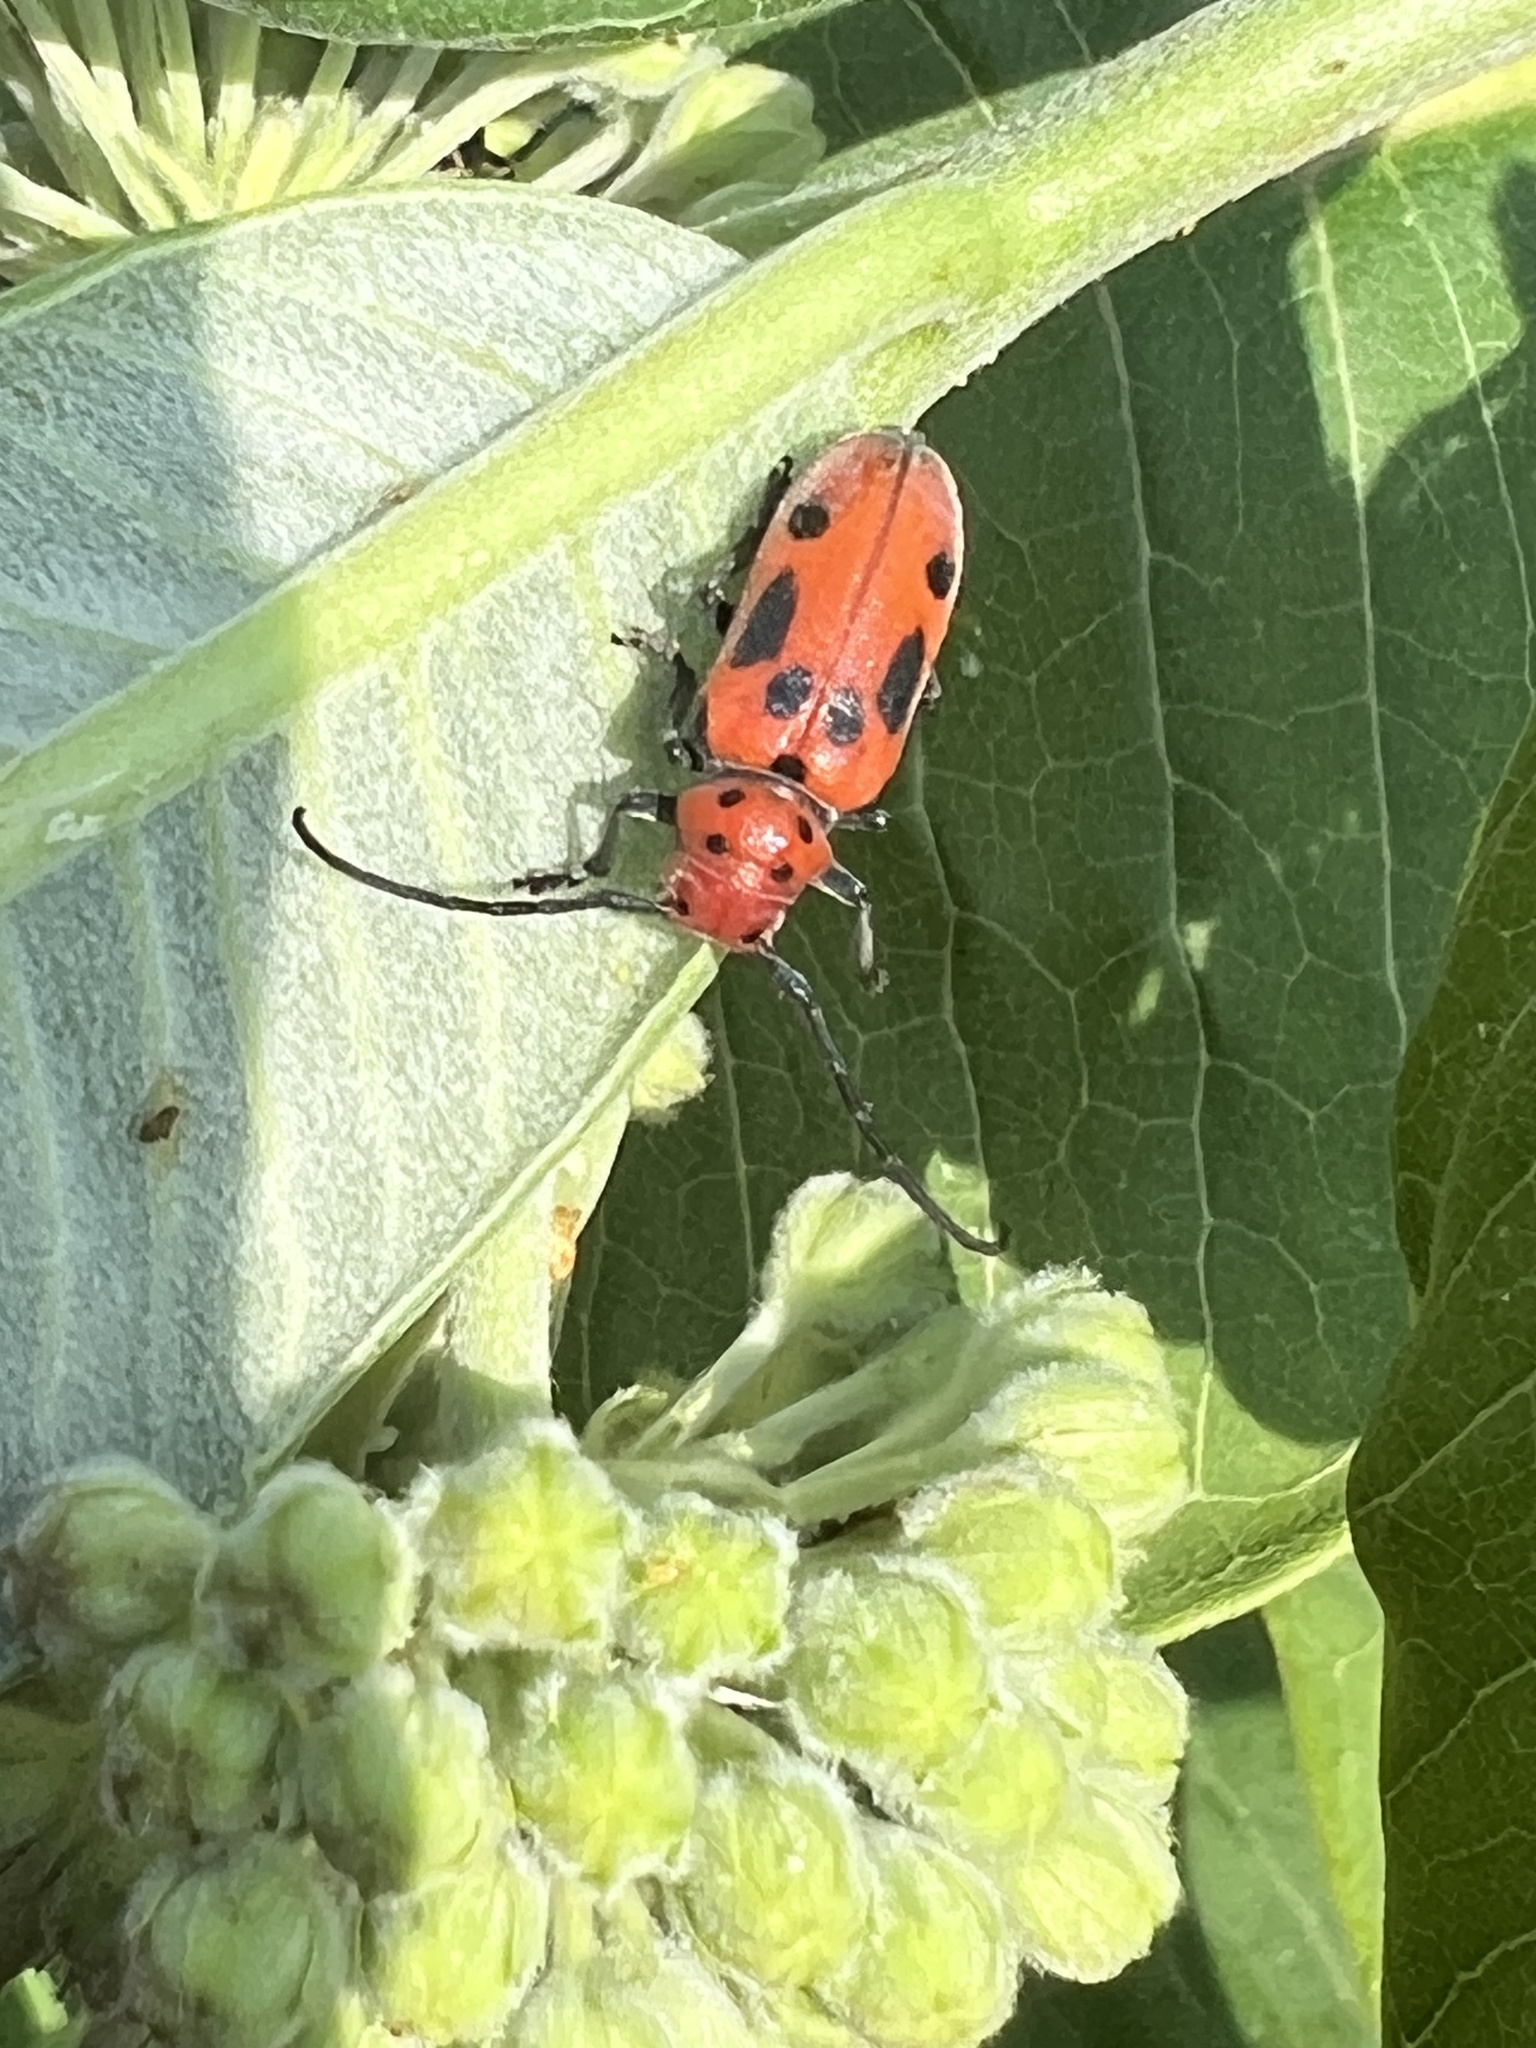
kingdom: Animalia
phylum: Arthropoda
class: Insecta
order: Coleoptera
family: Cerambycidae
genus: Tetraopes
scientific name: Tetraopes tetrophthalmus
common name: Red milkweed beetle
